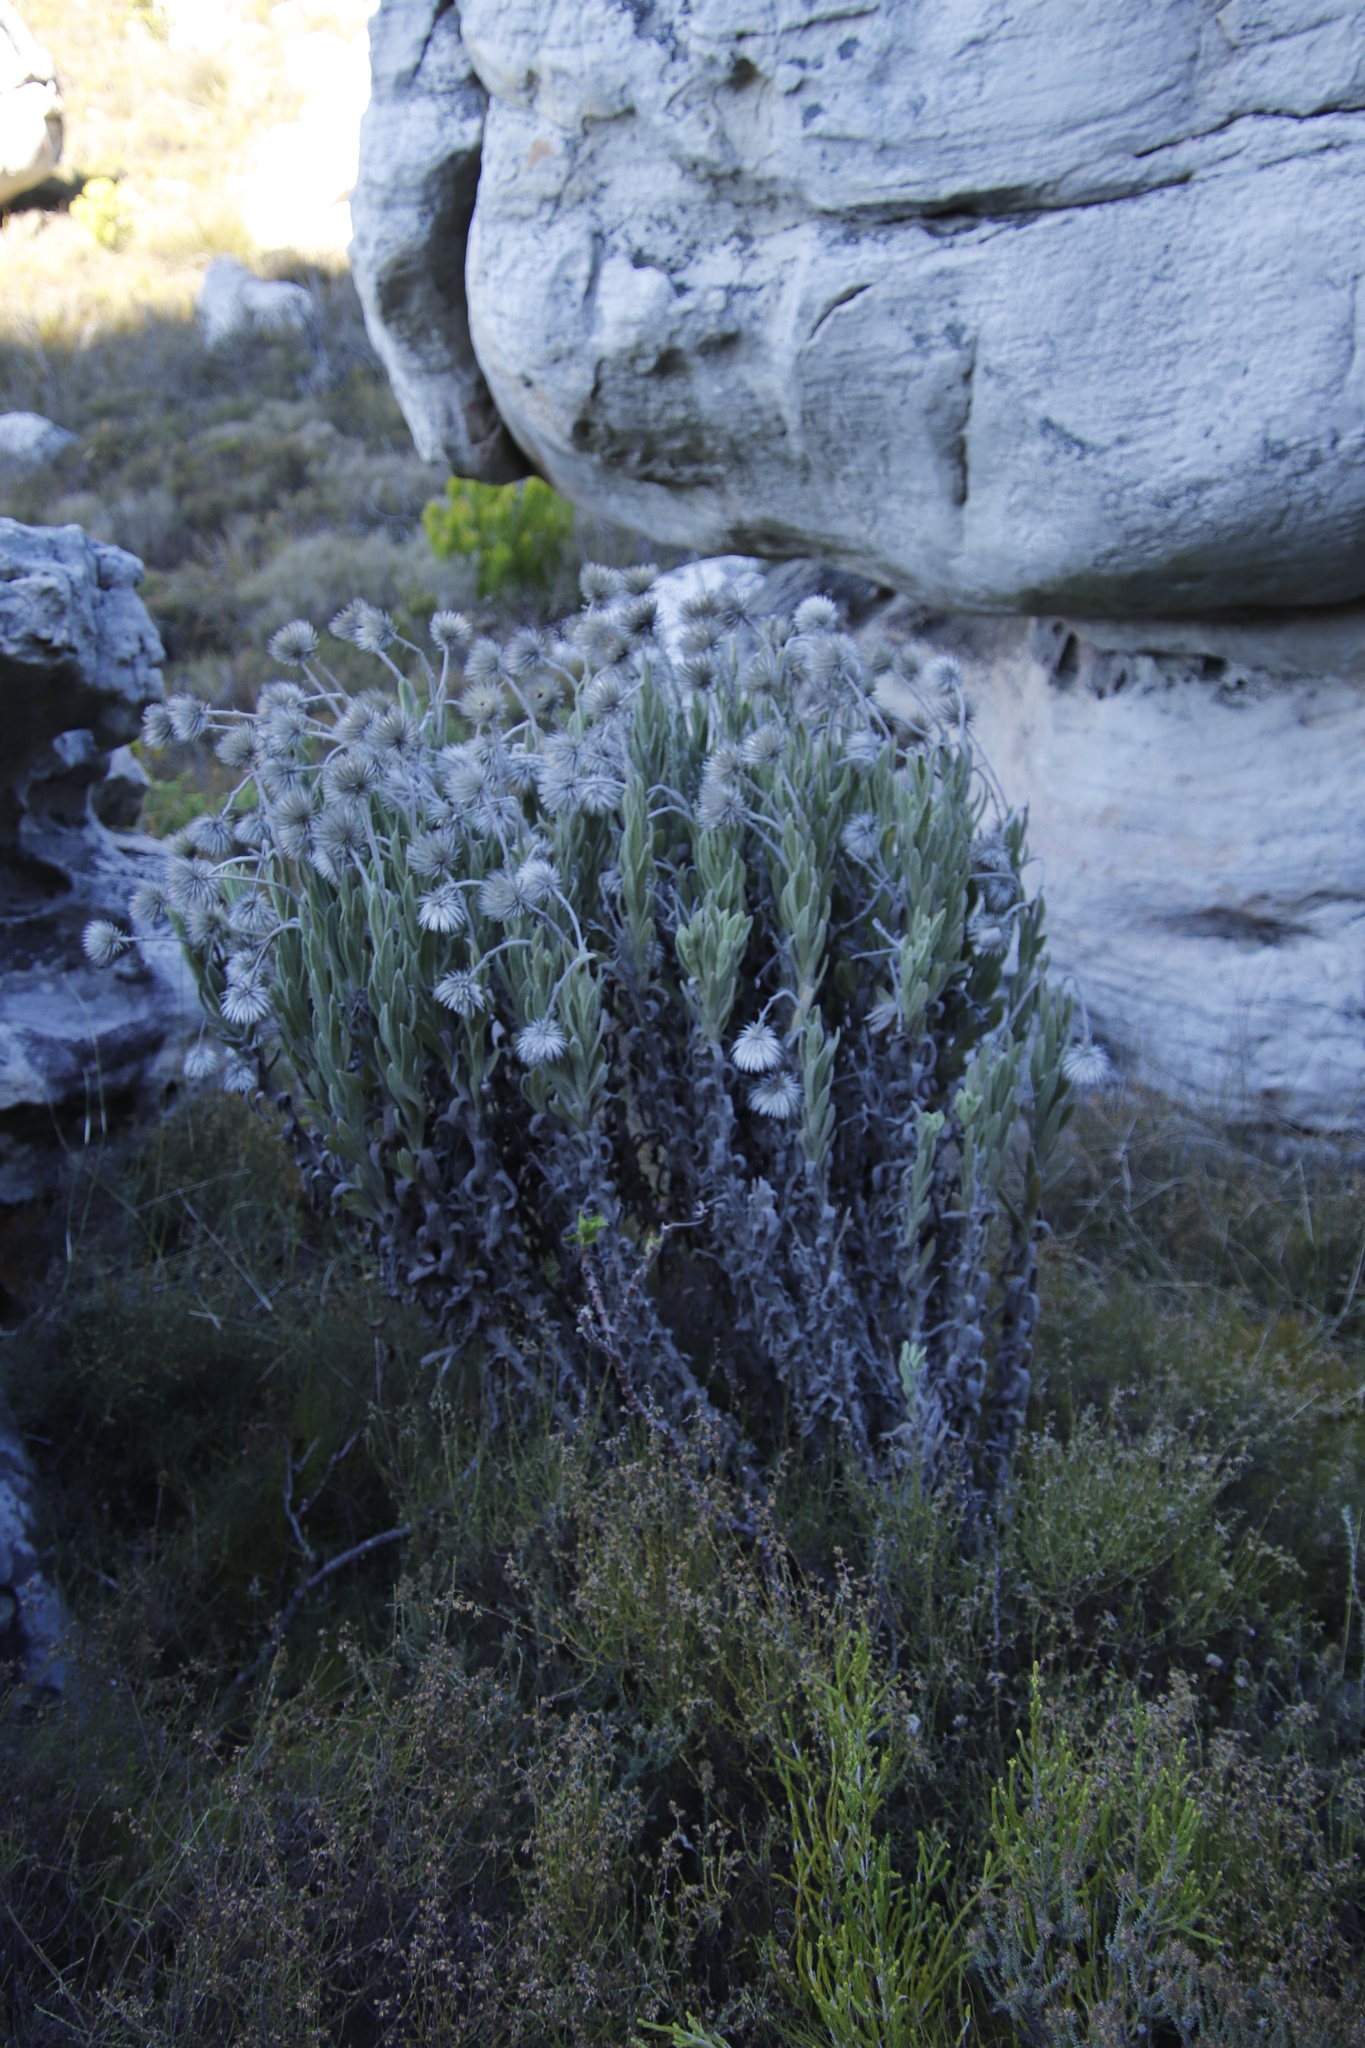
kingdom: Plantae
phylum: Tracheophyta
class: Magnoliopsida
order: Asterales
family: Asteraceae
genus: Syncarpha
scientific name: Syncarpha vestita
